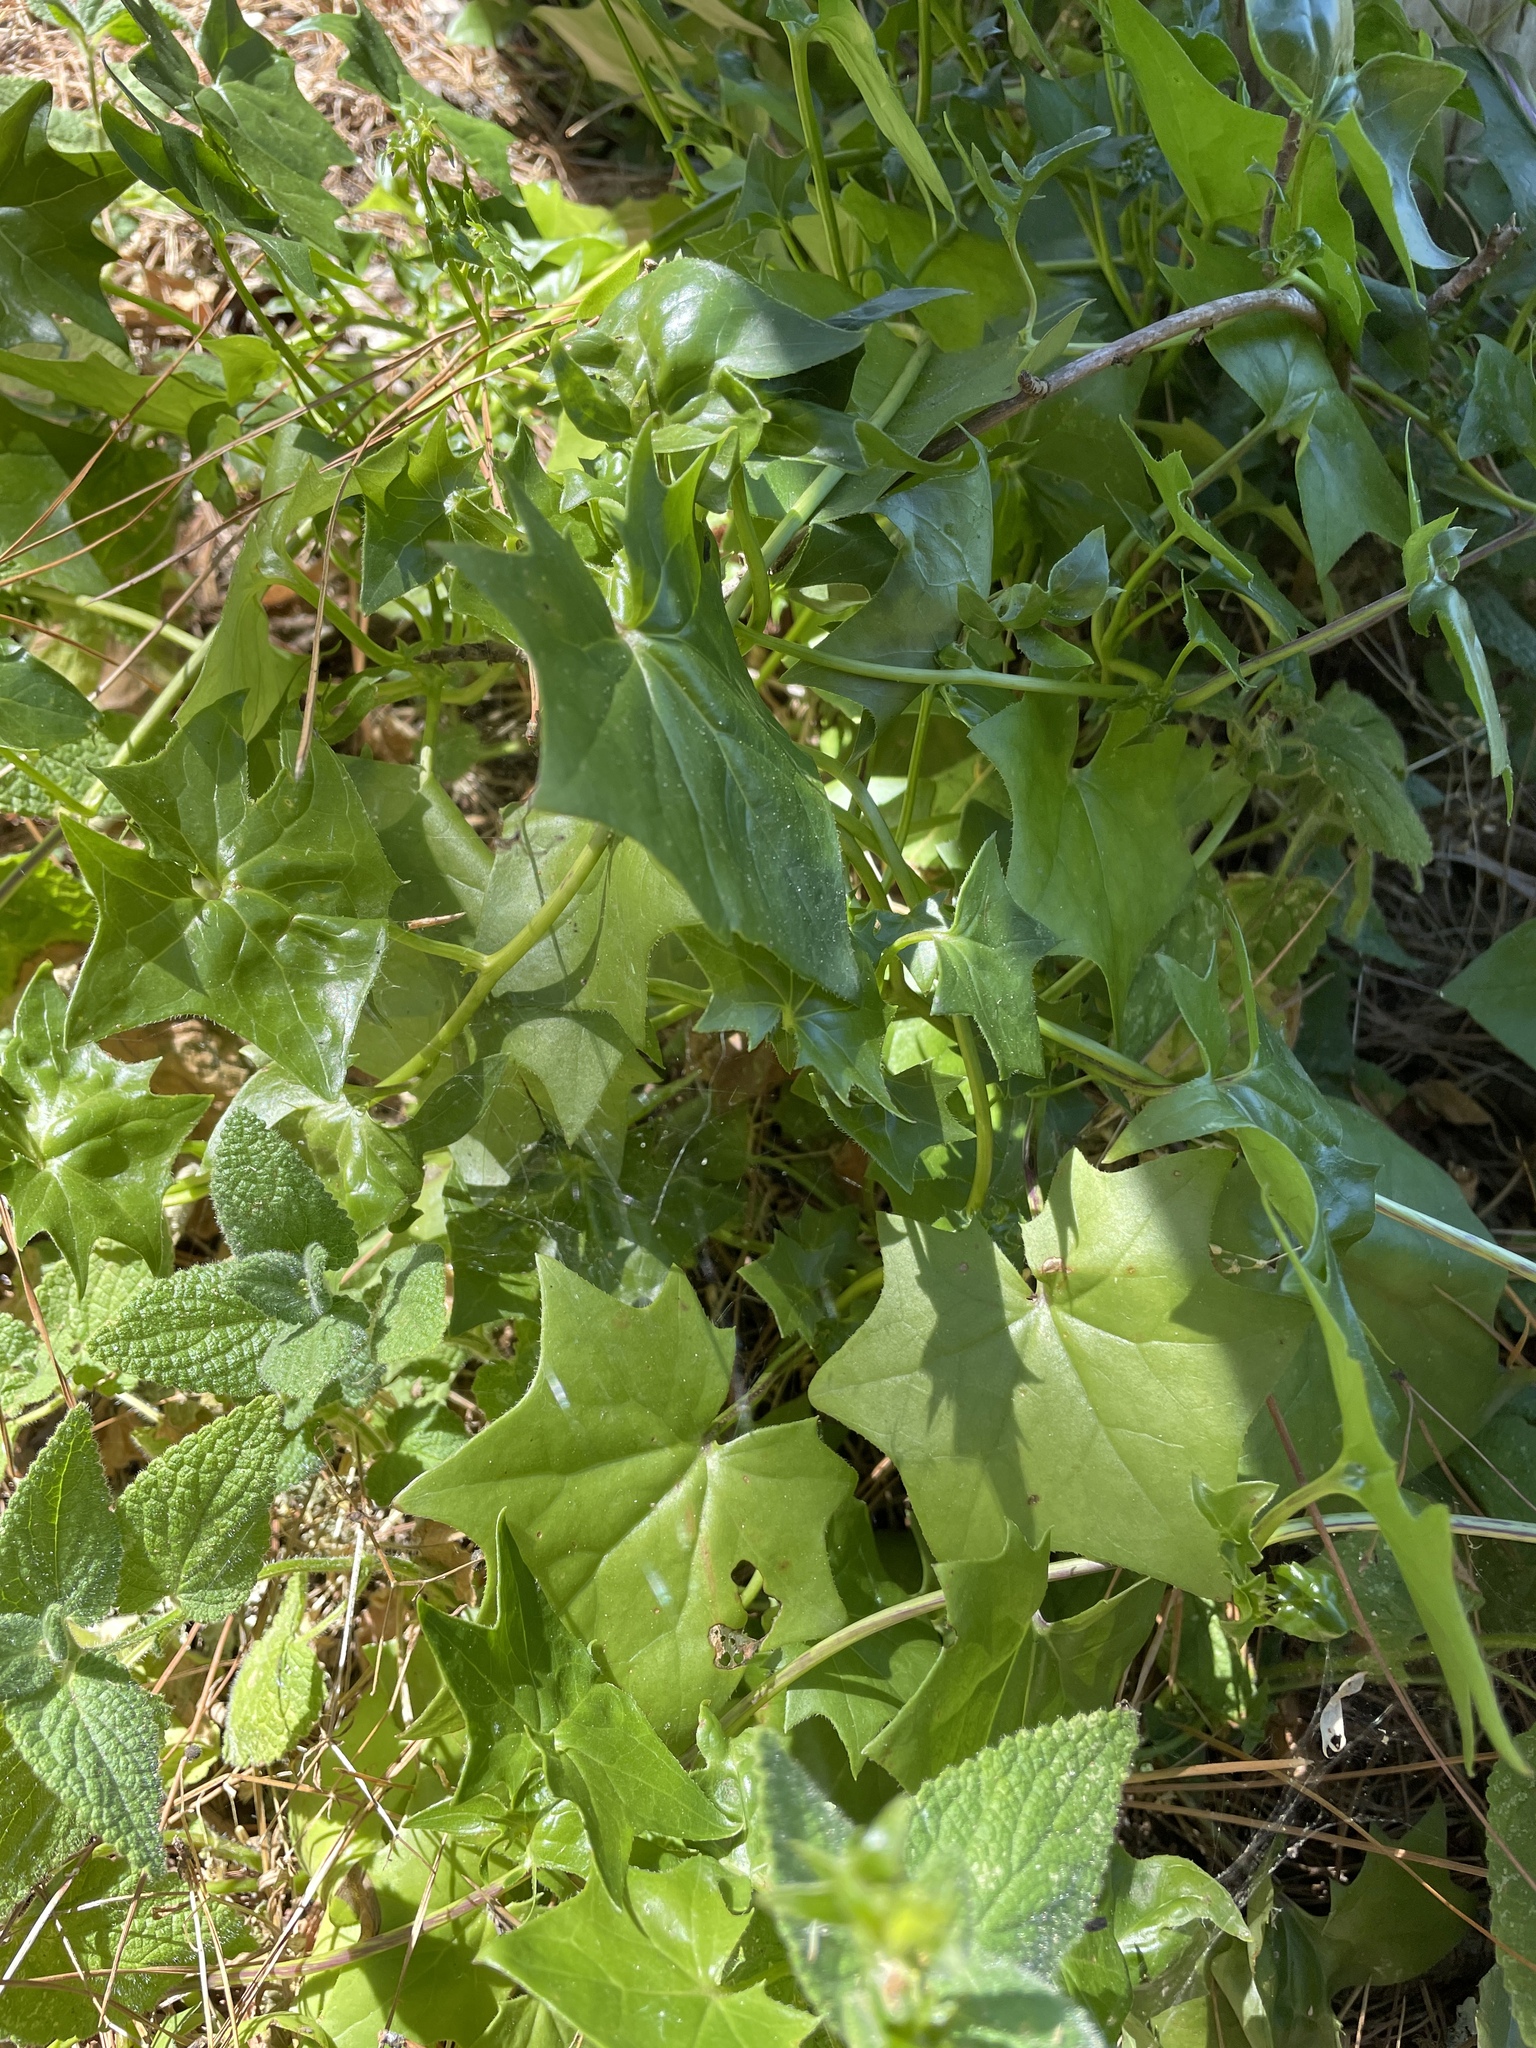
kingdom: Plantae
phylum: Tracheophyta
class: Magnoliopsida
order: Asterales
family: Asteraceae
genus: Delairea
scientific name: Delairea odorata
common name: Cape-ivy
